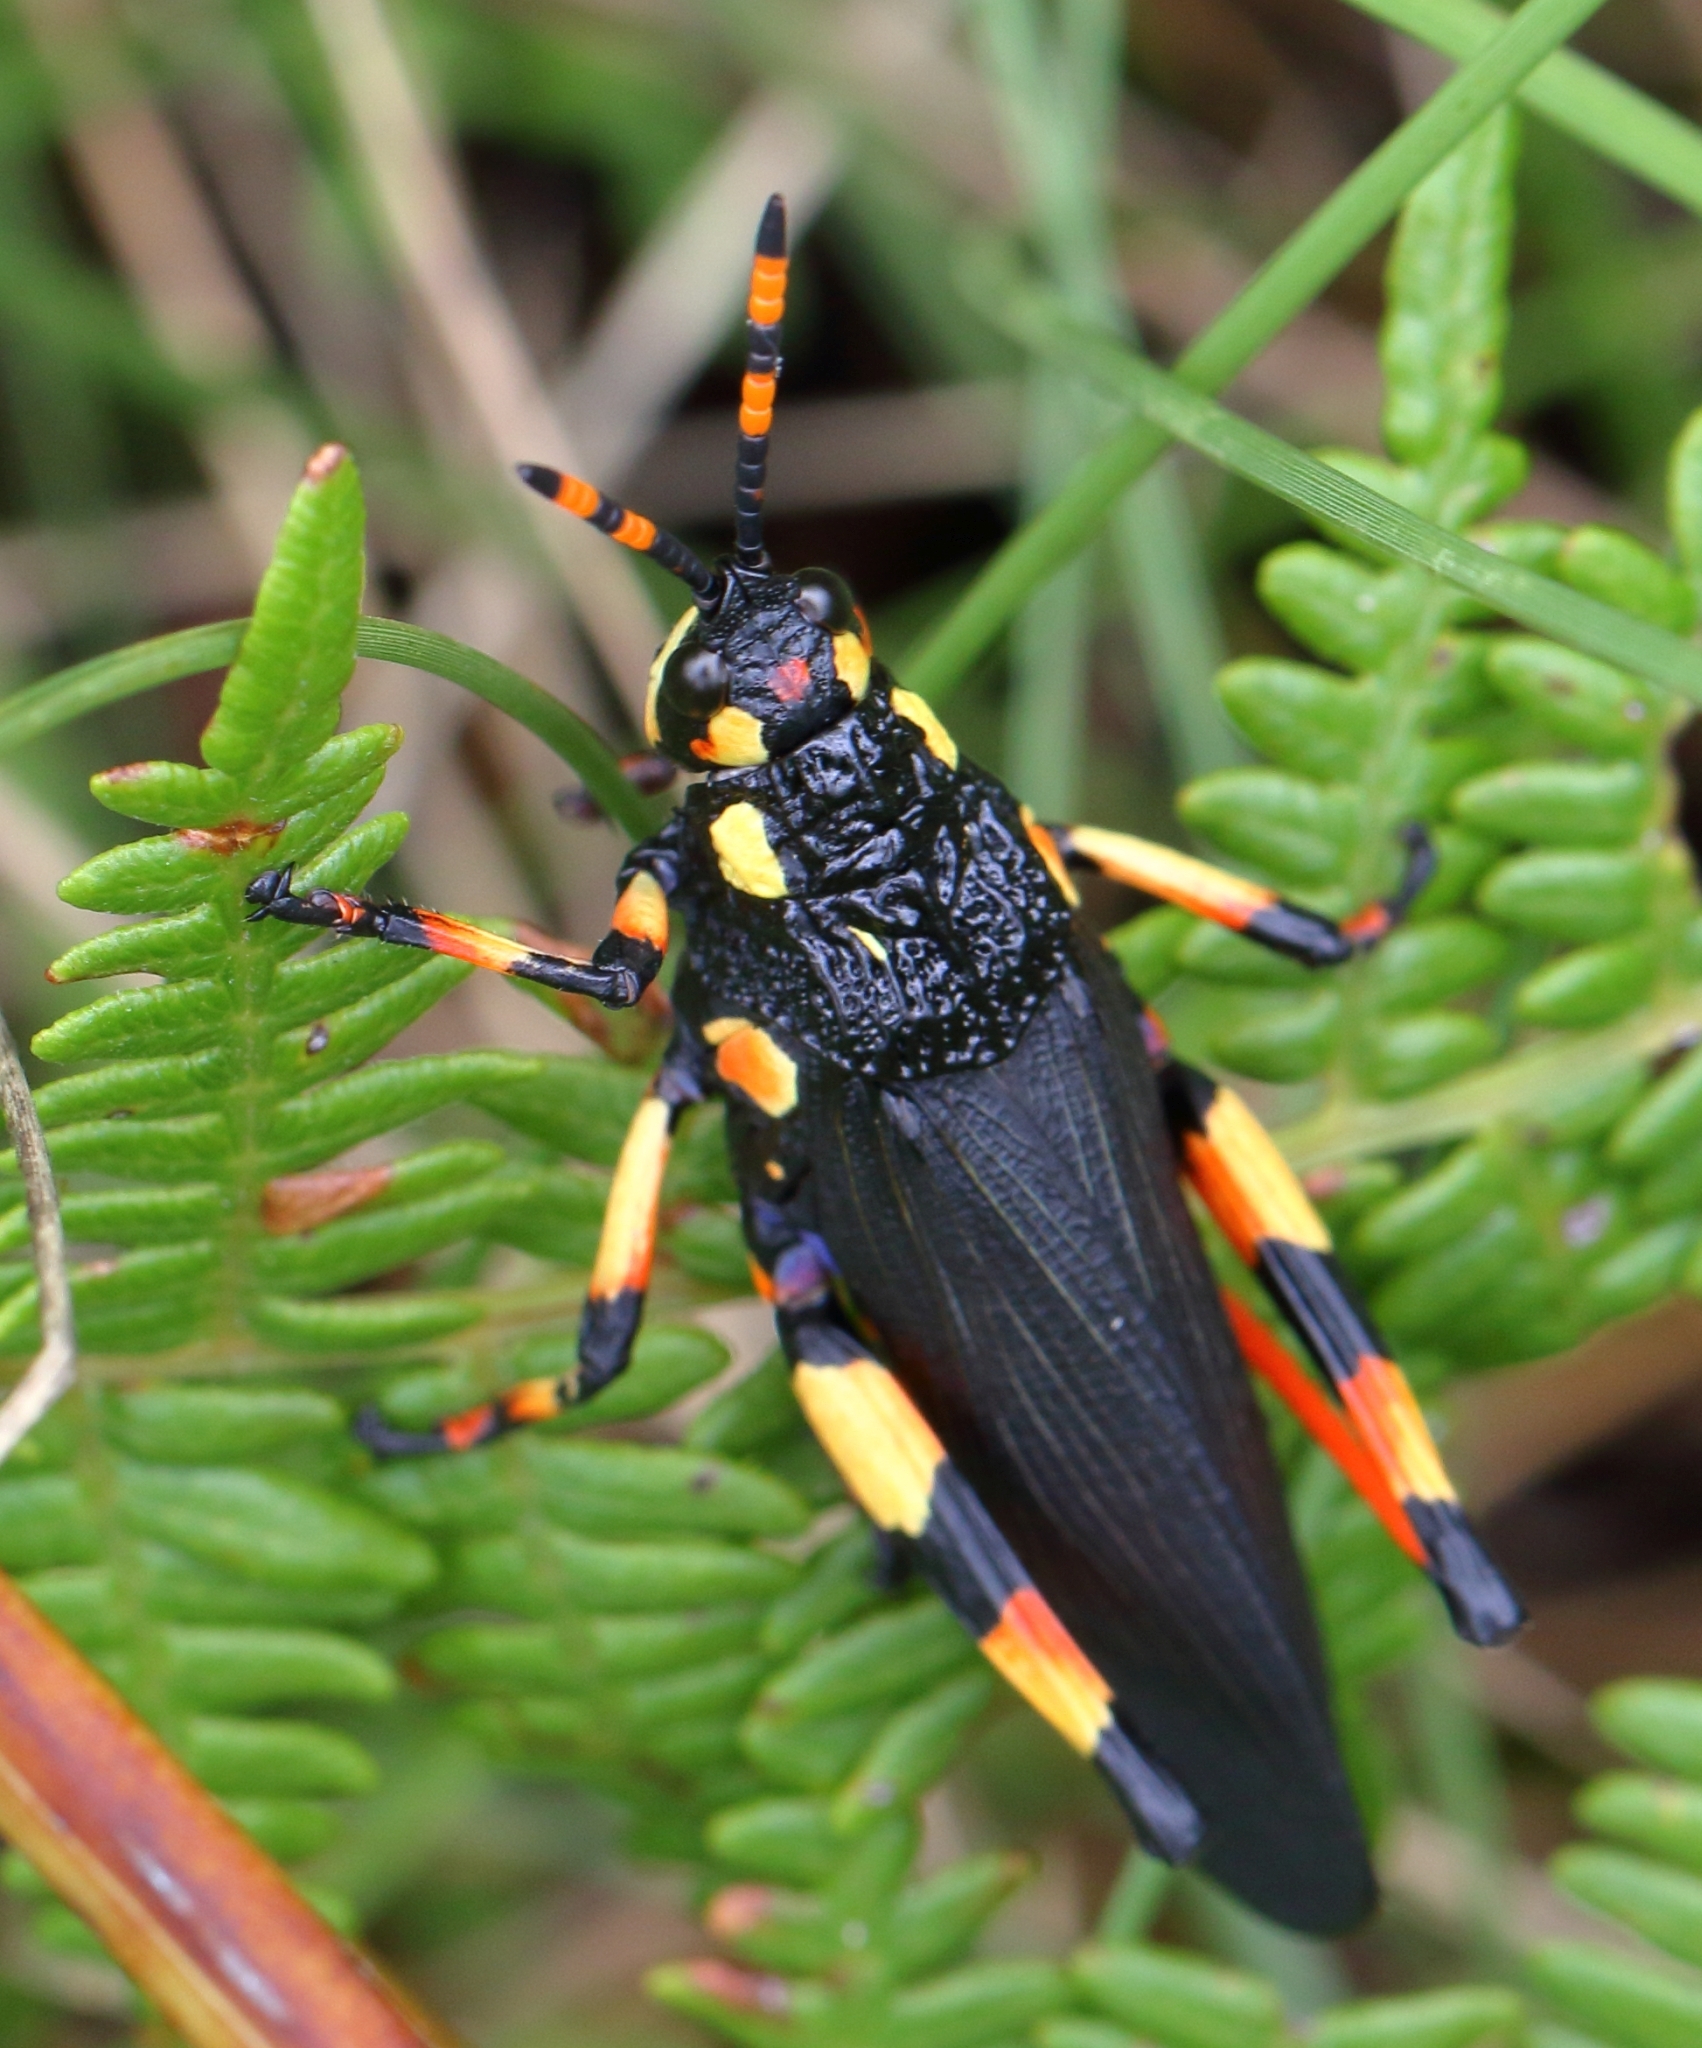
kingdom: Animalia
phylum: Arthropoda
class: Insecta
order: Orthoptera
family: Pyrgomorphidae
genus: Maura
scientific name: Maura rubroornata
